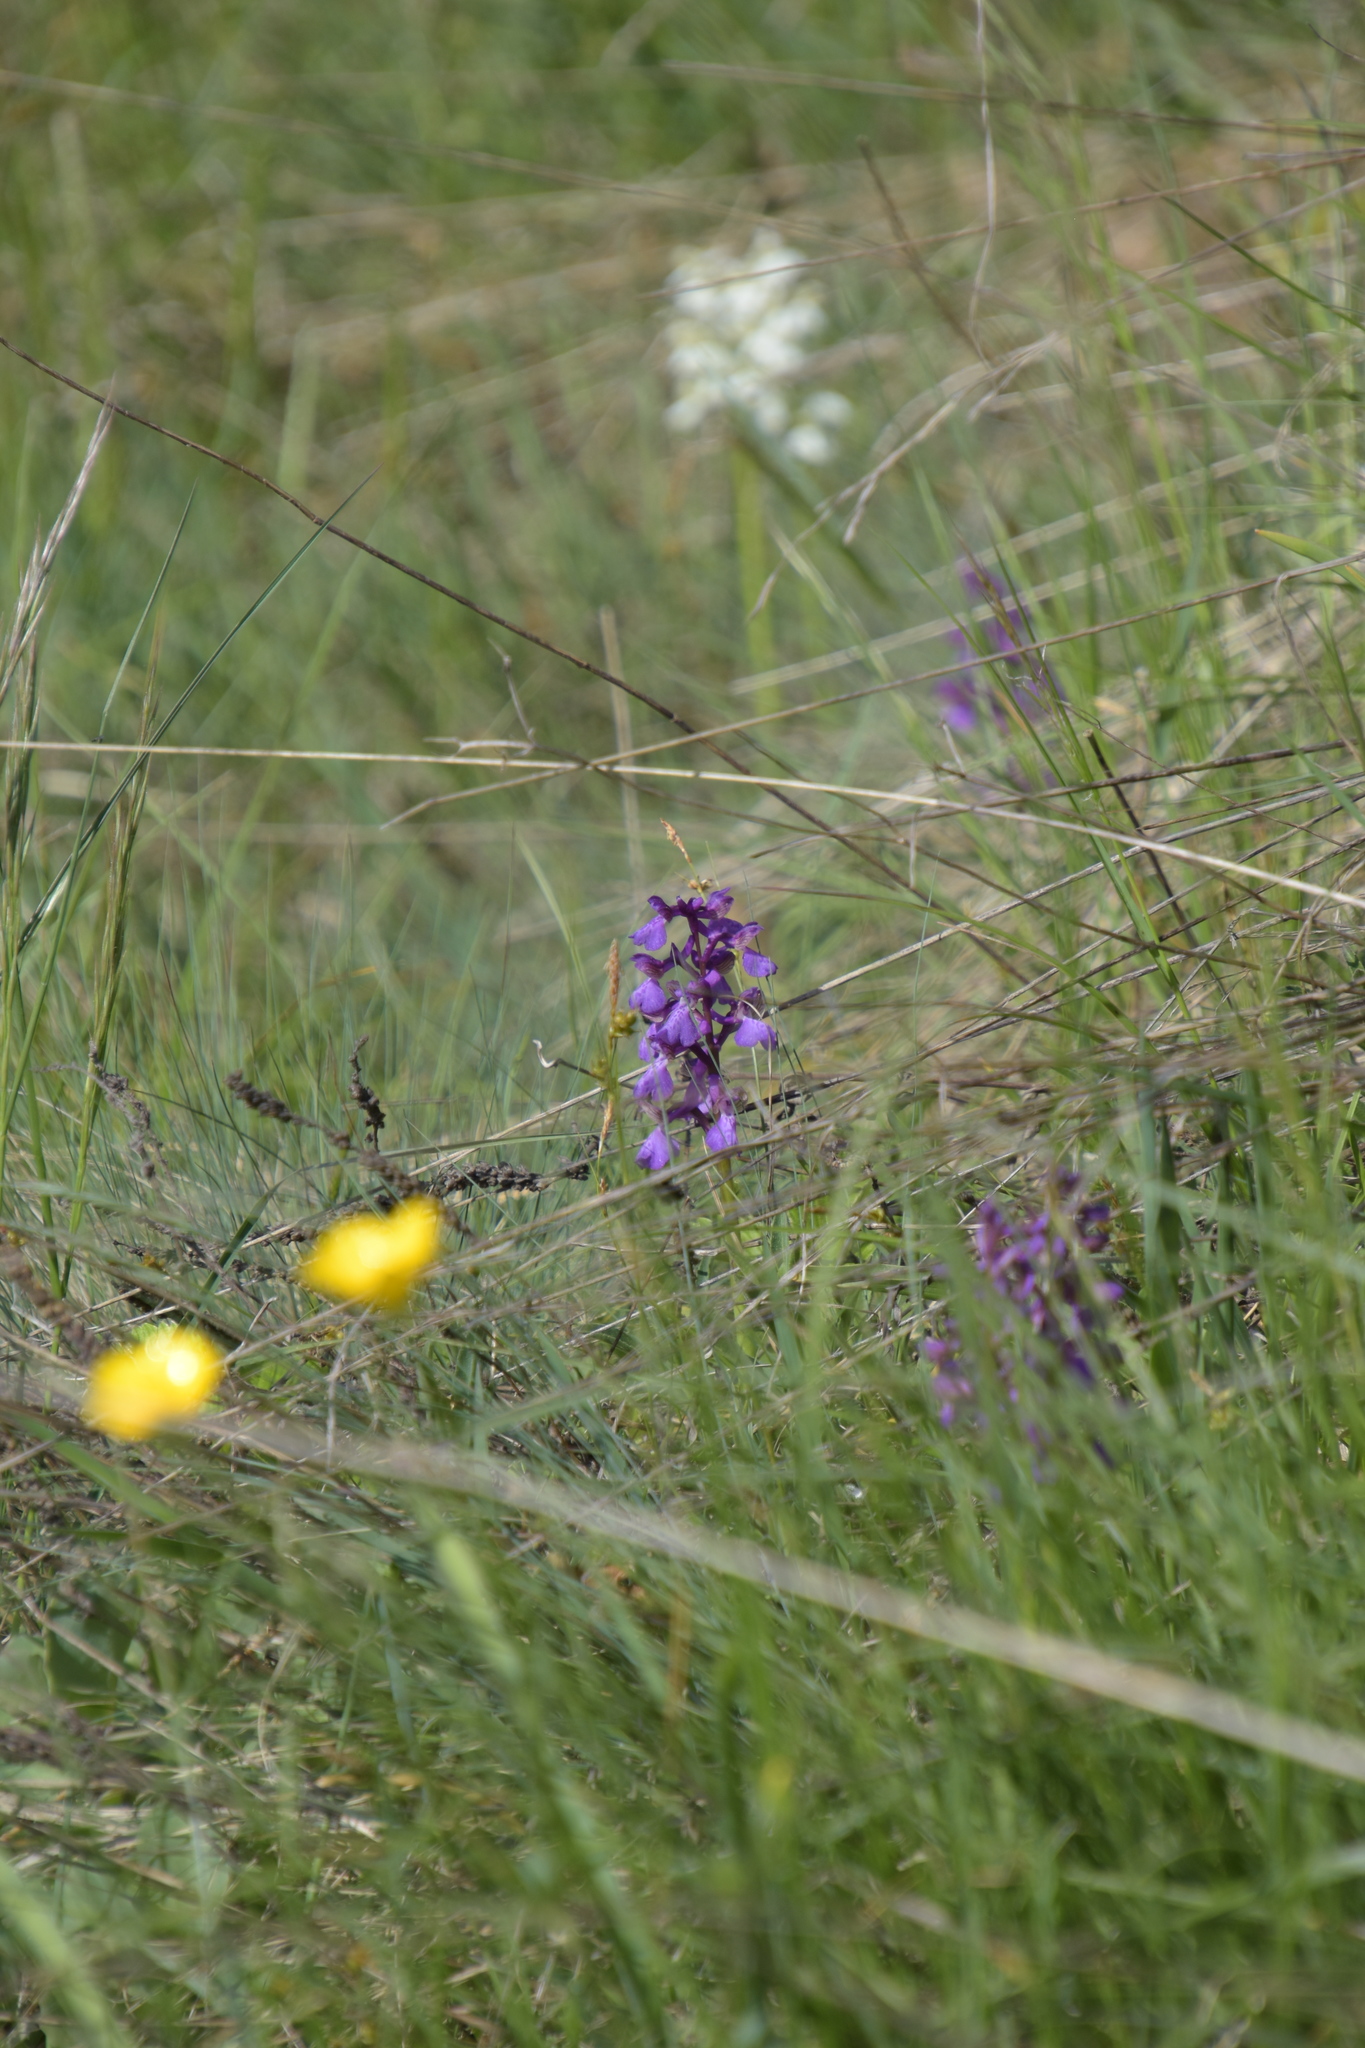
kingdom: Plantae
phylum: Tracheophyta
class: Liliopsida
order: Asparagales
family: Orchidaceae
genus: Anacamptis
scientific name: Anacamptis morio
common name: Green-winged orchid
